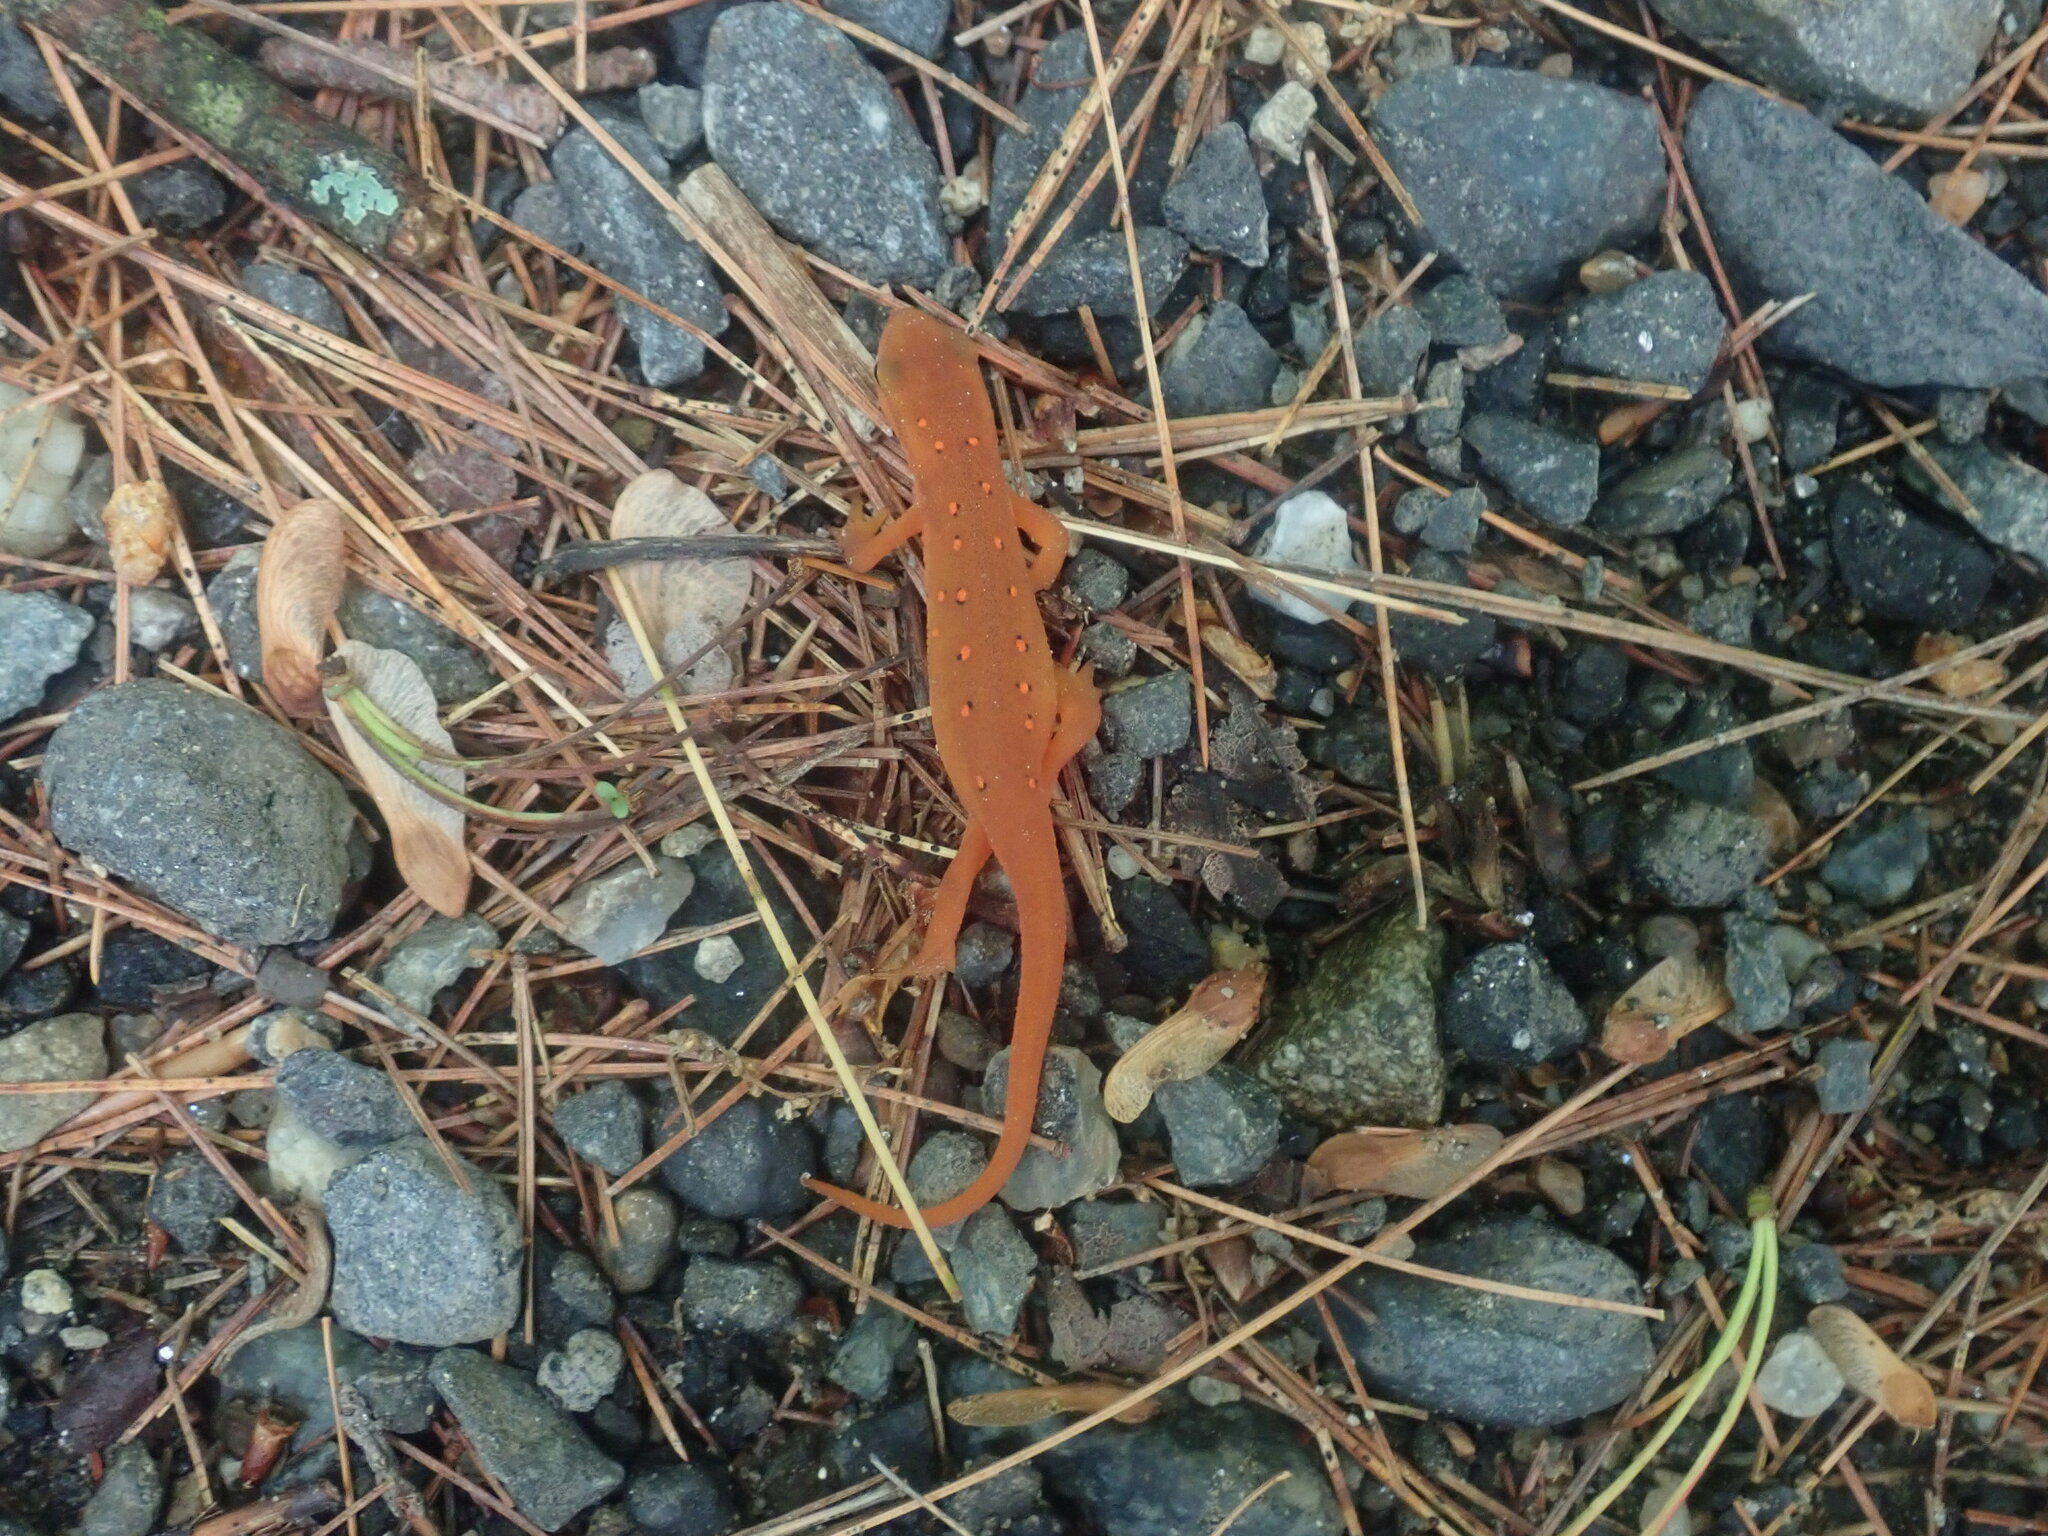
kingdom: Animalia
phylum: Chordata
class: Amphibia
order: Caudata
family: Salamandridae
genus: Notophthalmus
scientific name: Notophthalmus viridescens
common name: Eastern newt
